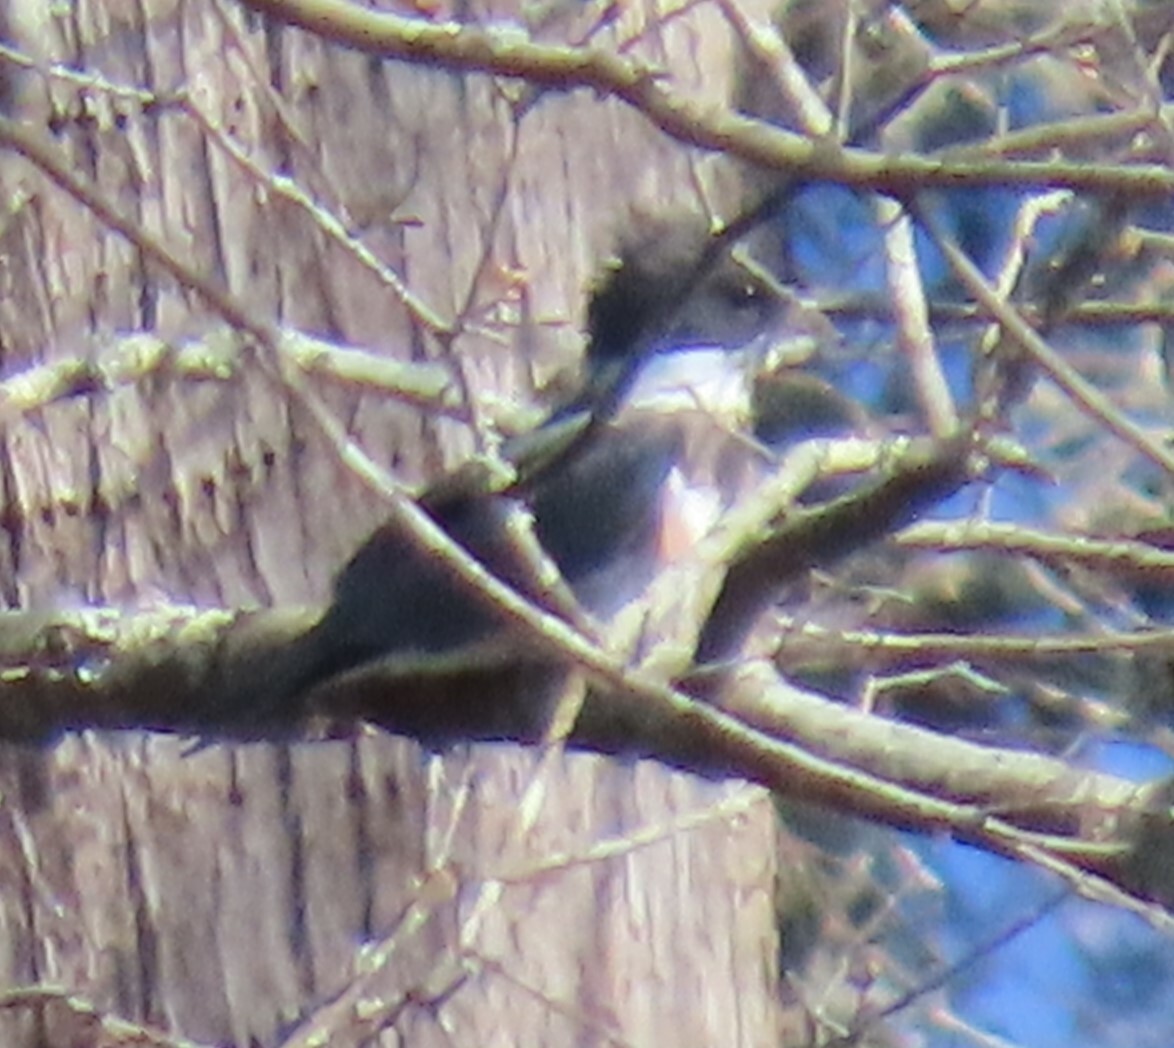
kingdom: Animalia
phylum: Chordata
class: Aves
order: Coraciiformes
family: Alcedinidae
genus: Megaceryle
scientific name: Megaceryle alcyon
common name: Belted kingfisher
